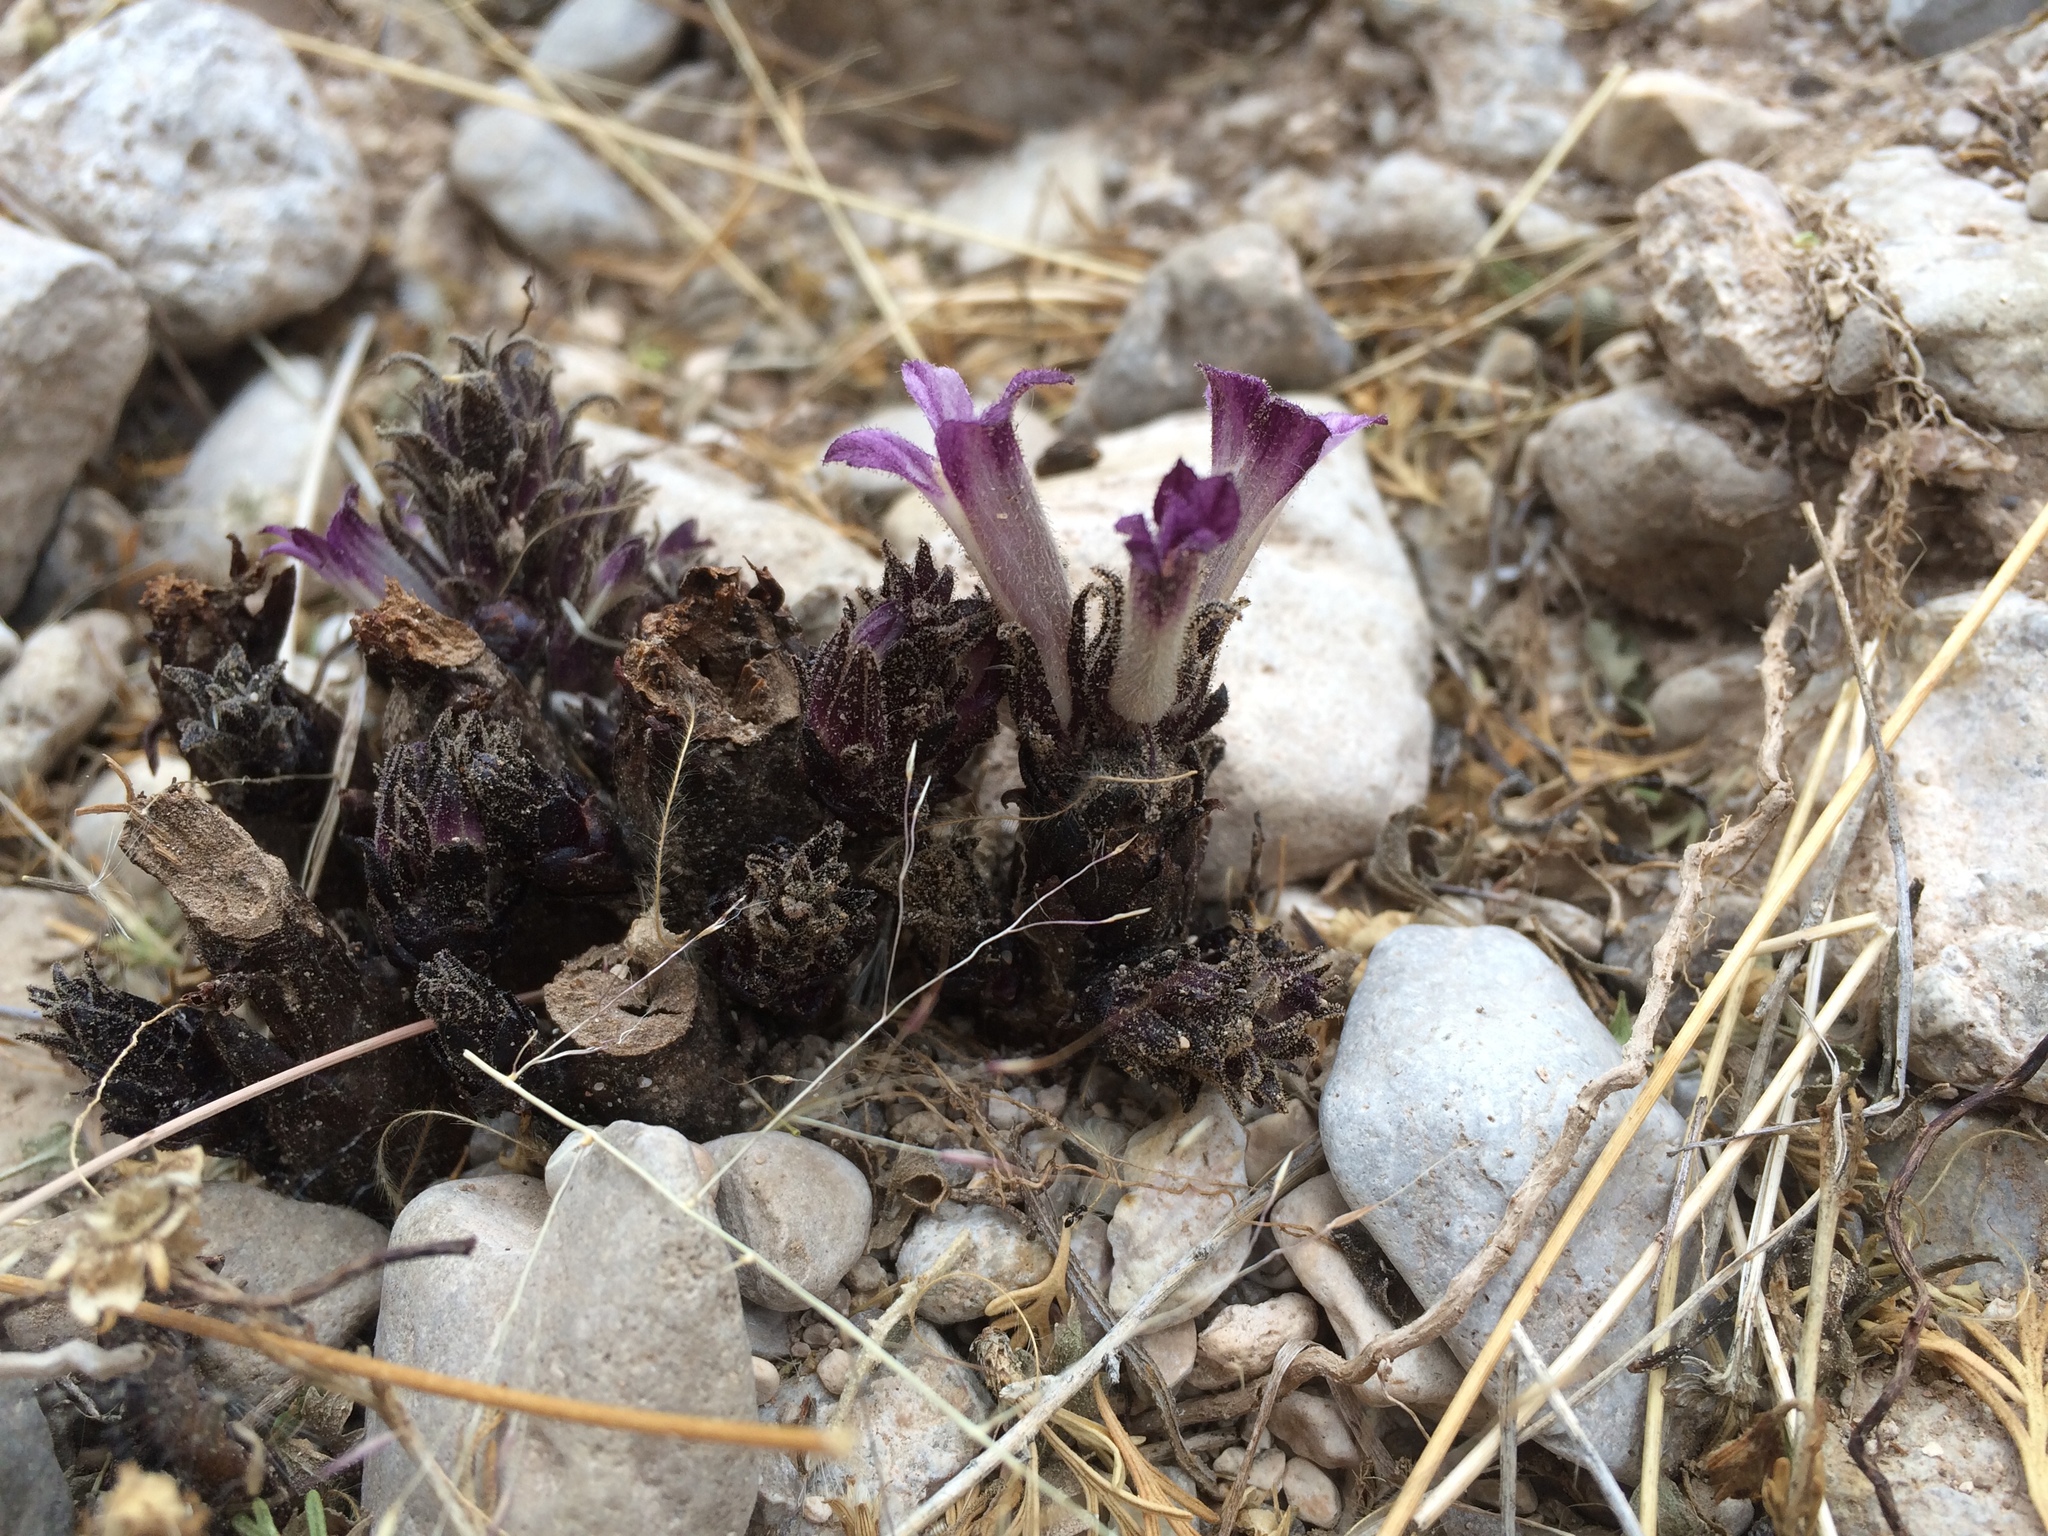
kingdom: Plantae
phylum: Tracheophyta
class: Magnoliopsida
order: Lamiales
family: Orobanchaceae
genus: Aphyllon
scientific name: Aphyllon cooperi
